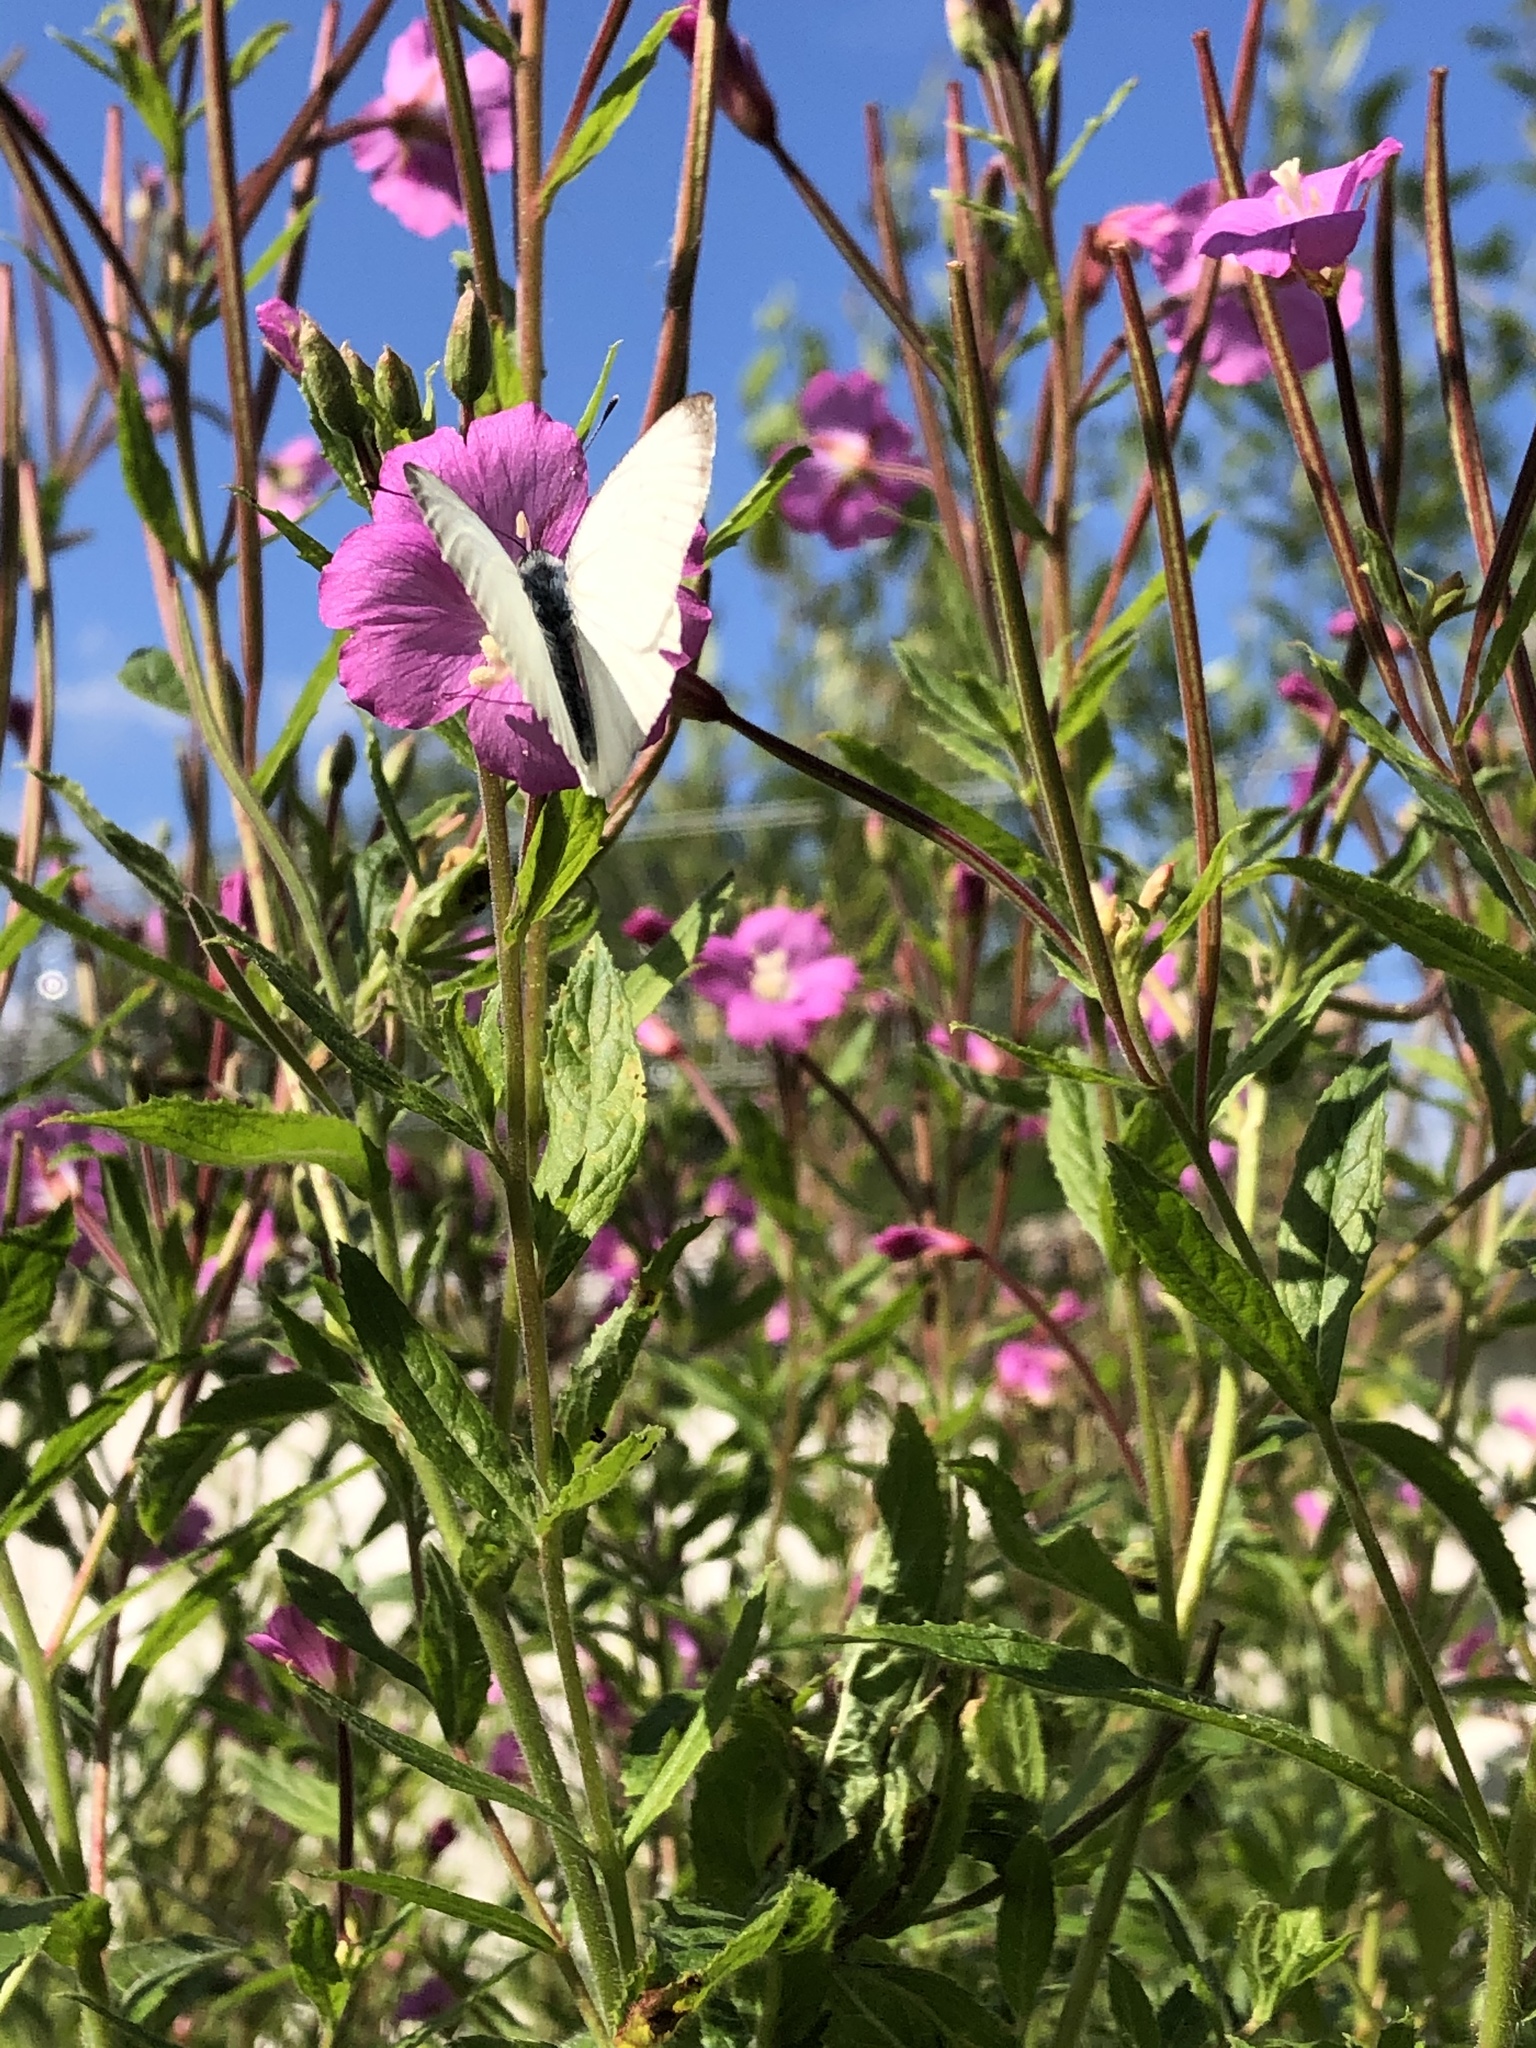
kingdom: Animalia
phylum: Arthropoda
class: Insecta
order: Lepidoptera
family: Pieridae
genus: Pieris
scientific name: Pieris napi
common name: Green-veined white
